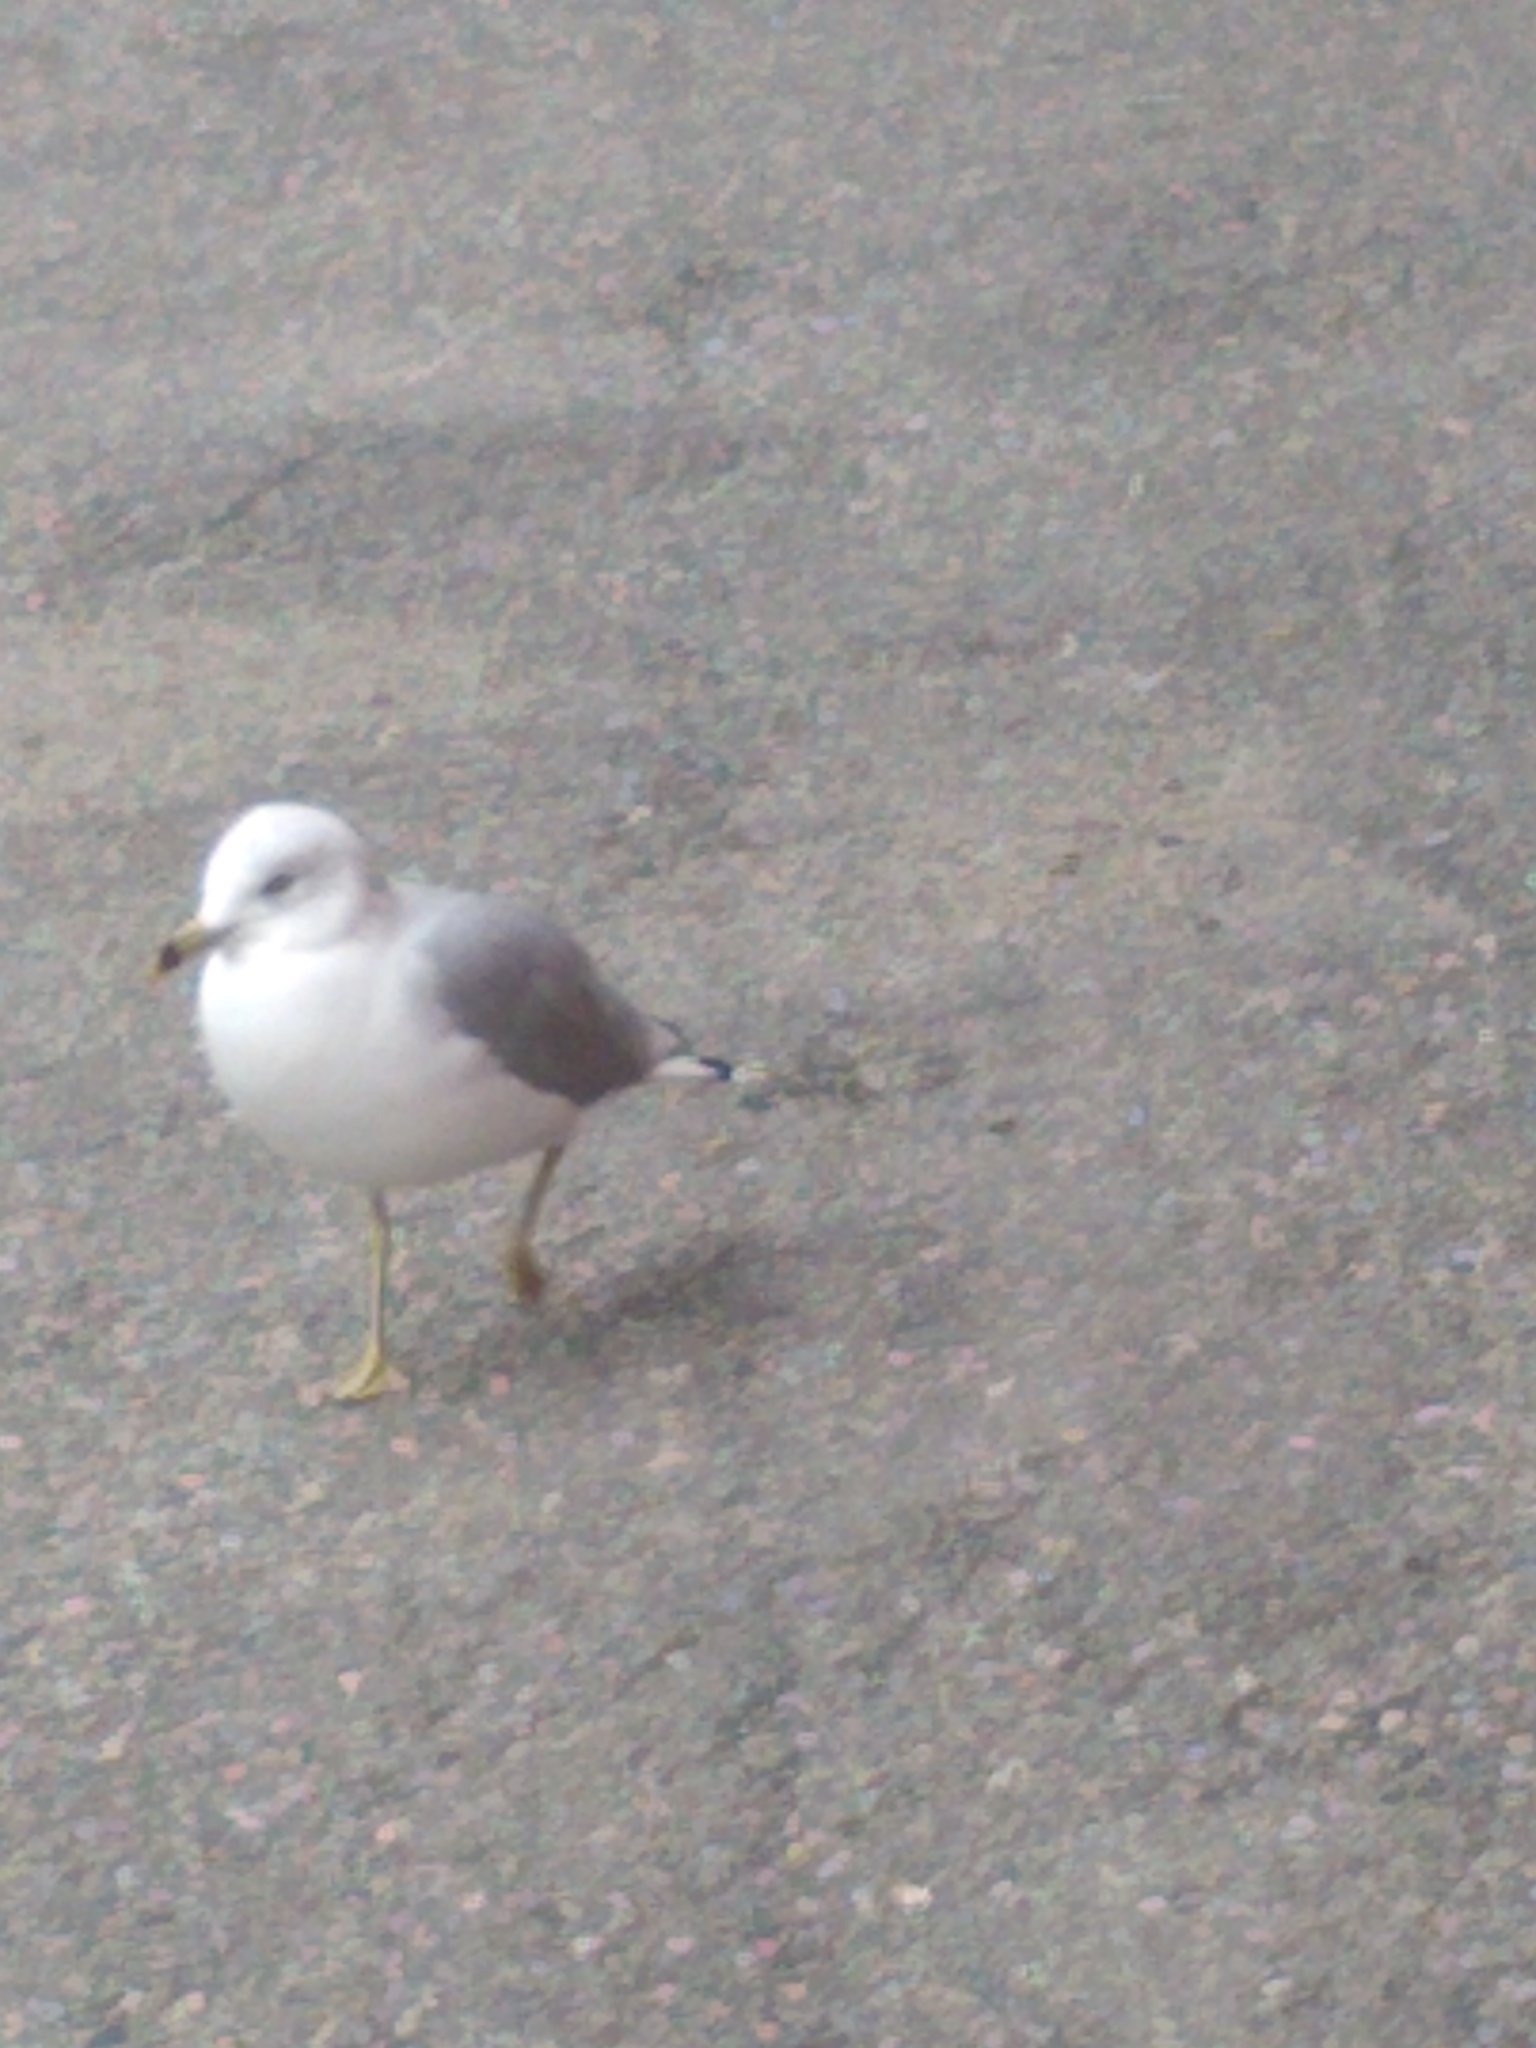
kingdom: Animalia
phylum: Chordata
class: Aves
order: Charadriiformes
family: Laridae
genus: Larus
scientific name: Larus delawarensis
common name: Ring-billed gull
